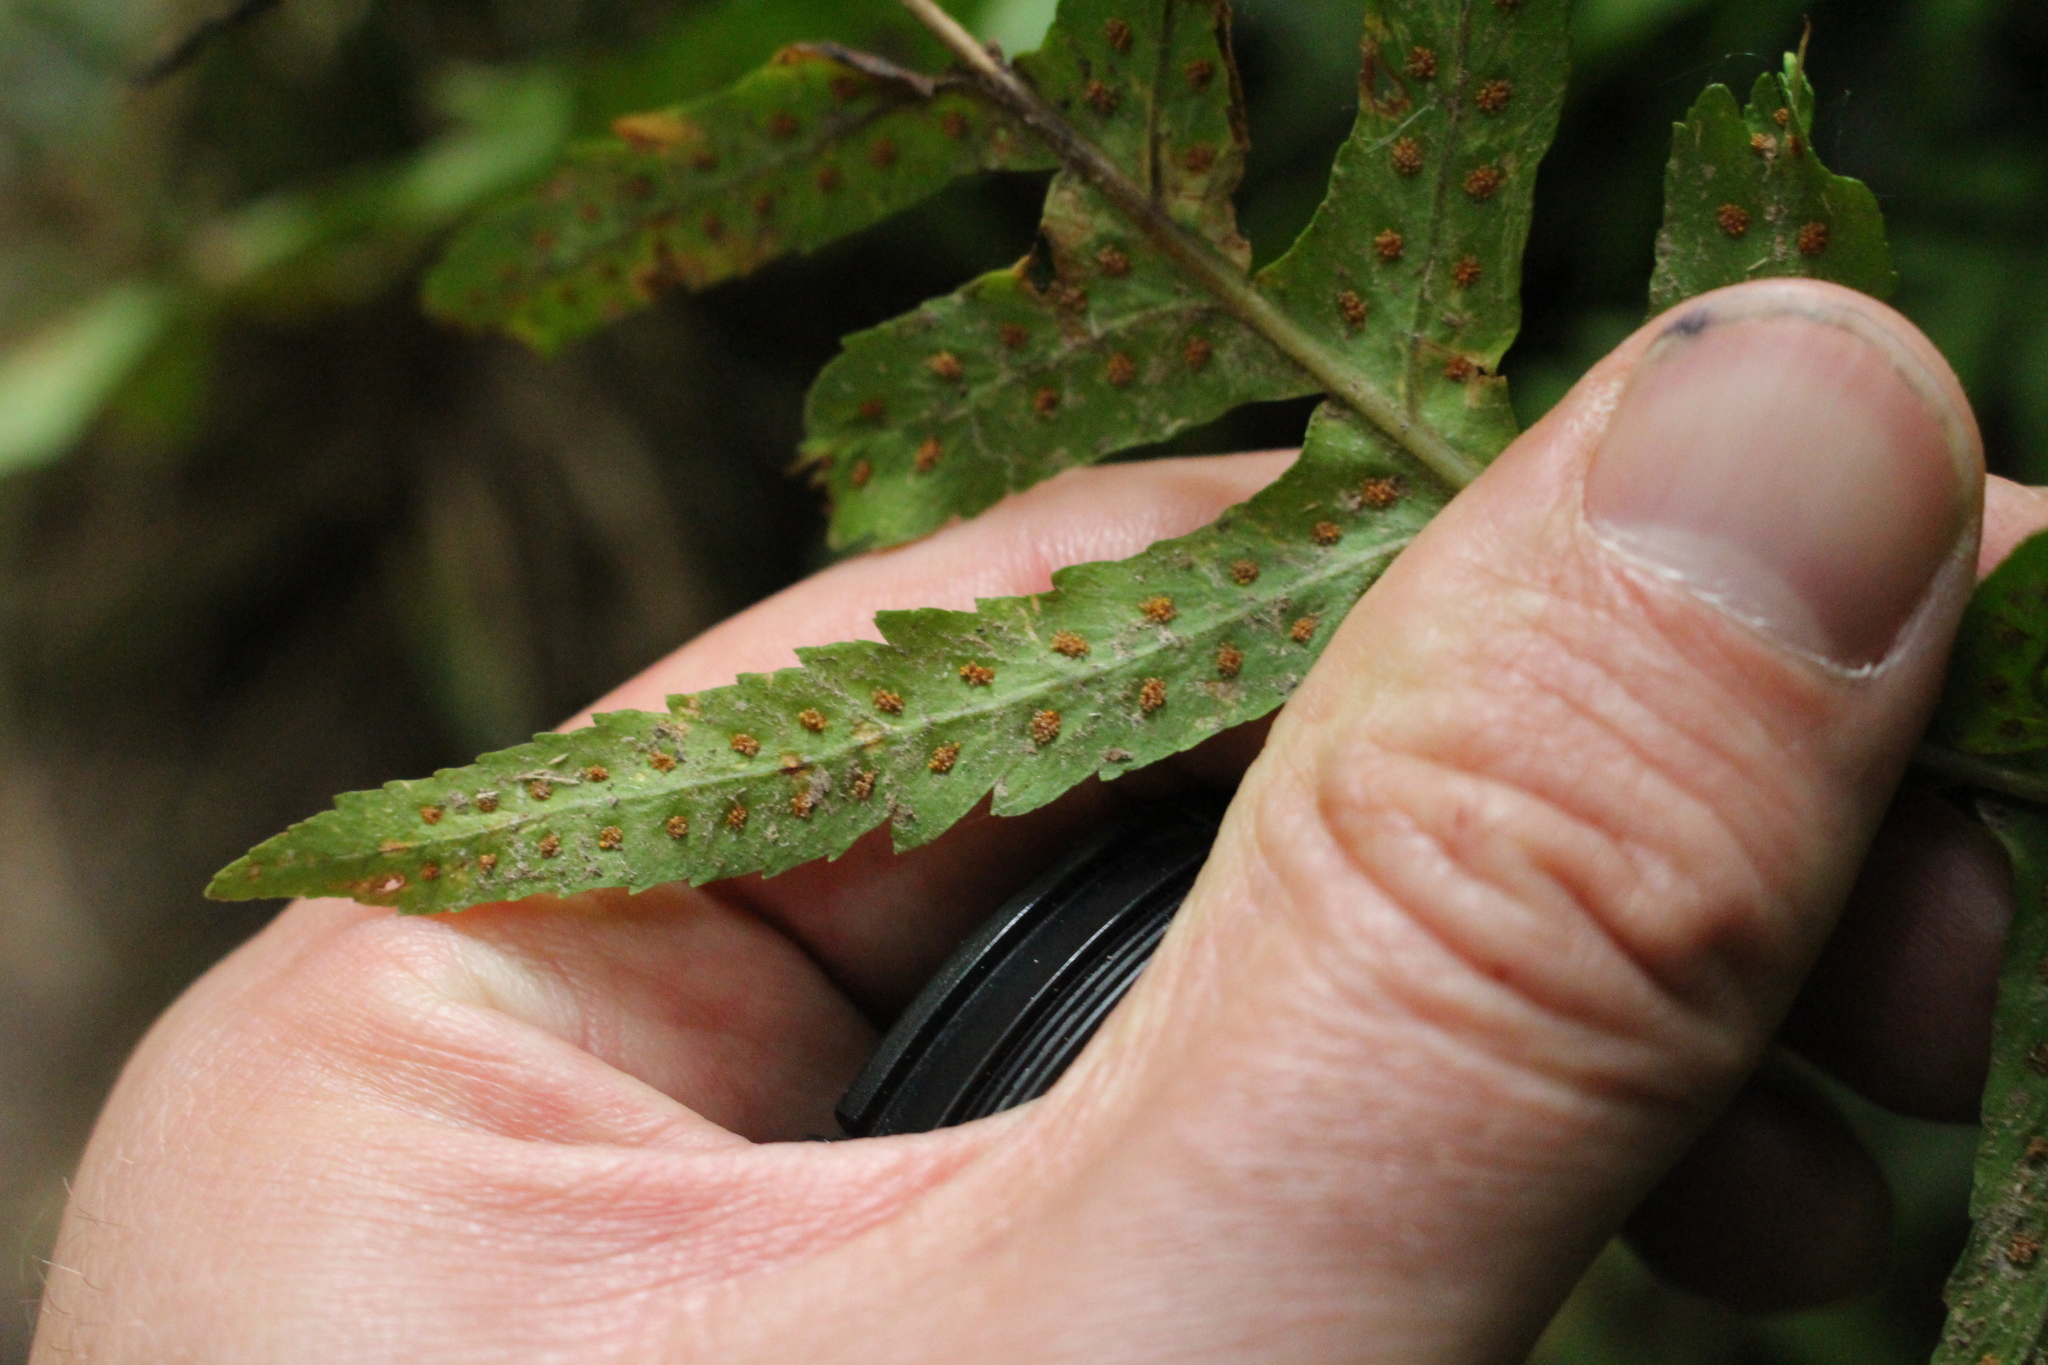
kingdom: Plantae
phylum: Tracheophyta
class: Polypodiopsida
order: Polypodiales
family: Polypodiaceae
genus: Polypodium
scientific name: Polypodium vulgare
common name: Common polypody
